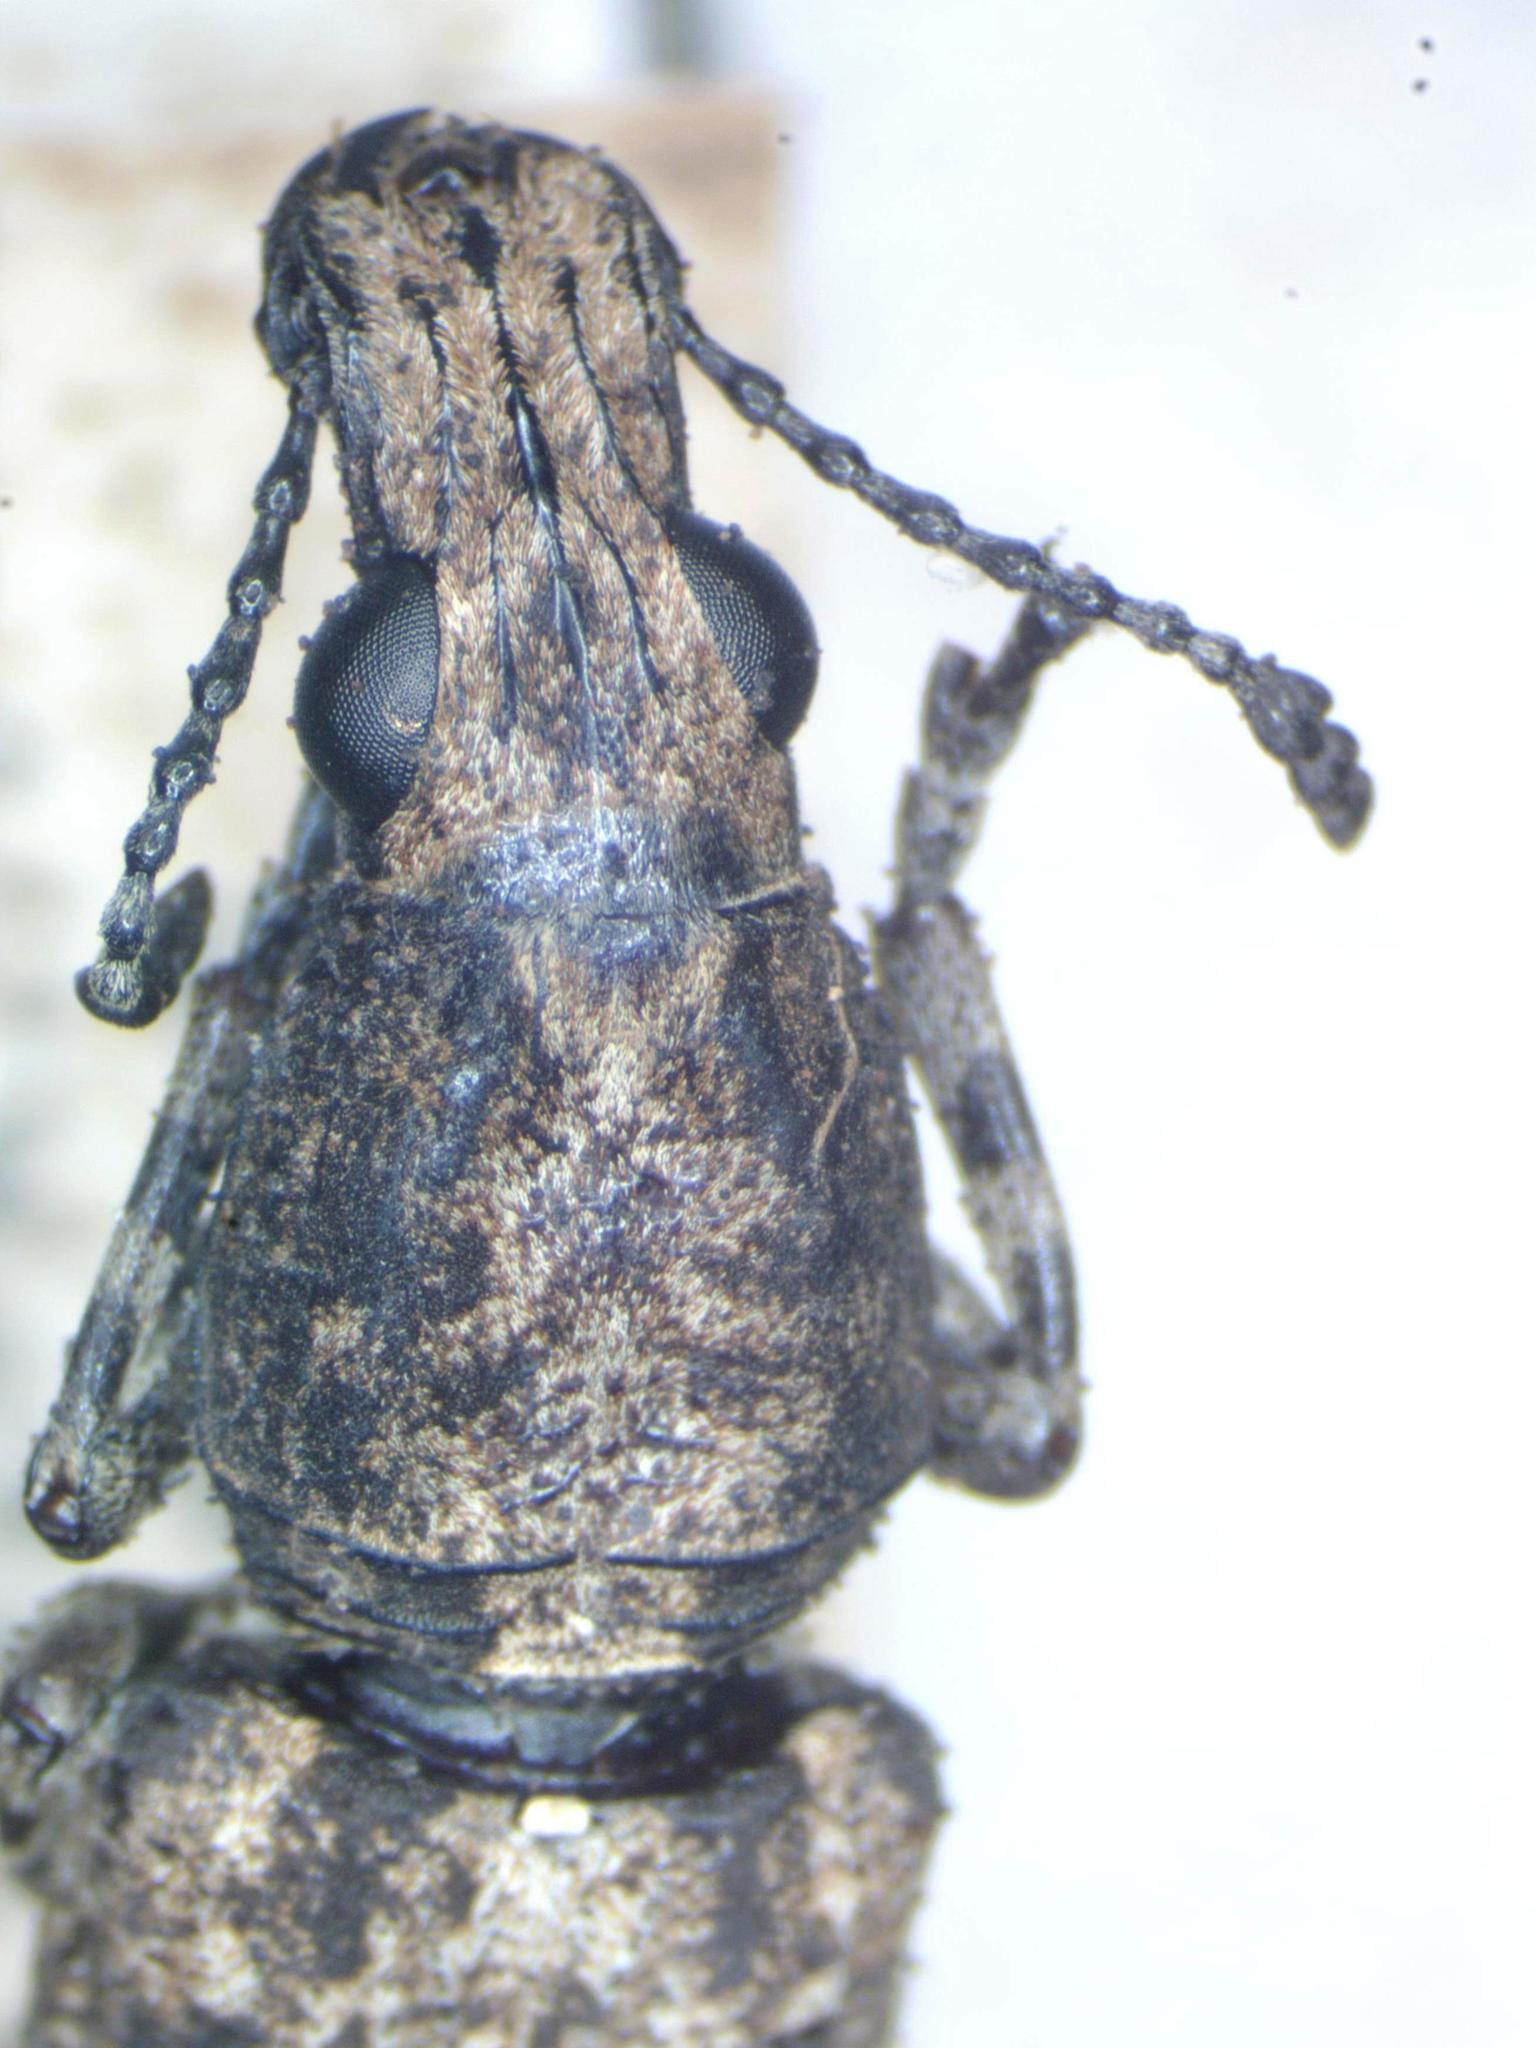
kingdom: Animalia
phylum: Arthropoda
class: Insecta
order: Coleoptera
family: Anthribidae
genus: Ptychoderes
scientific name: Ptychoderes nebulosus
